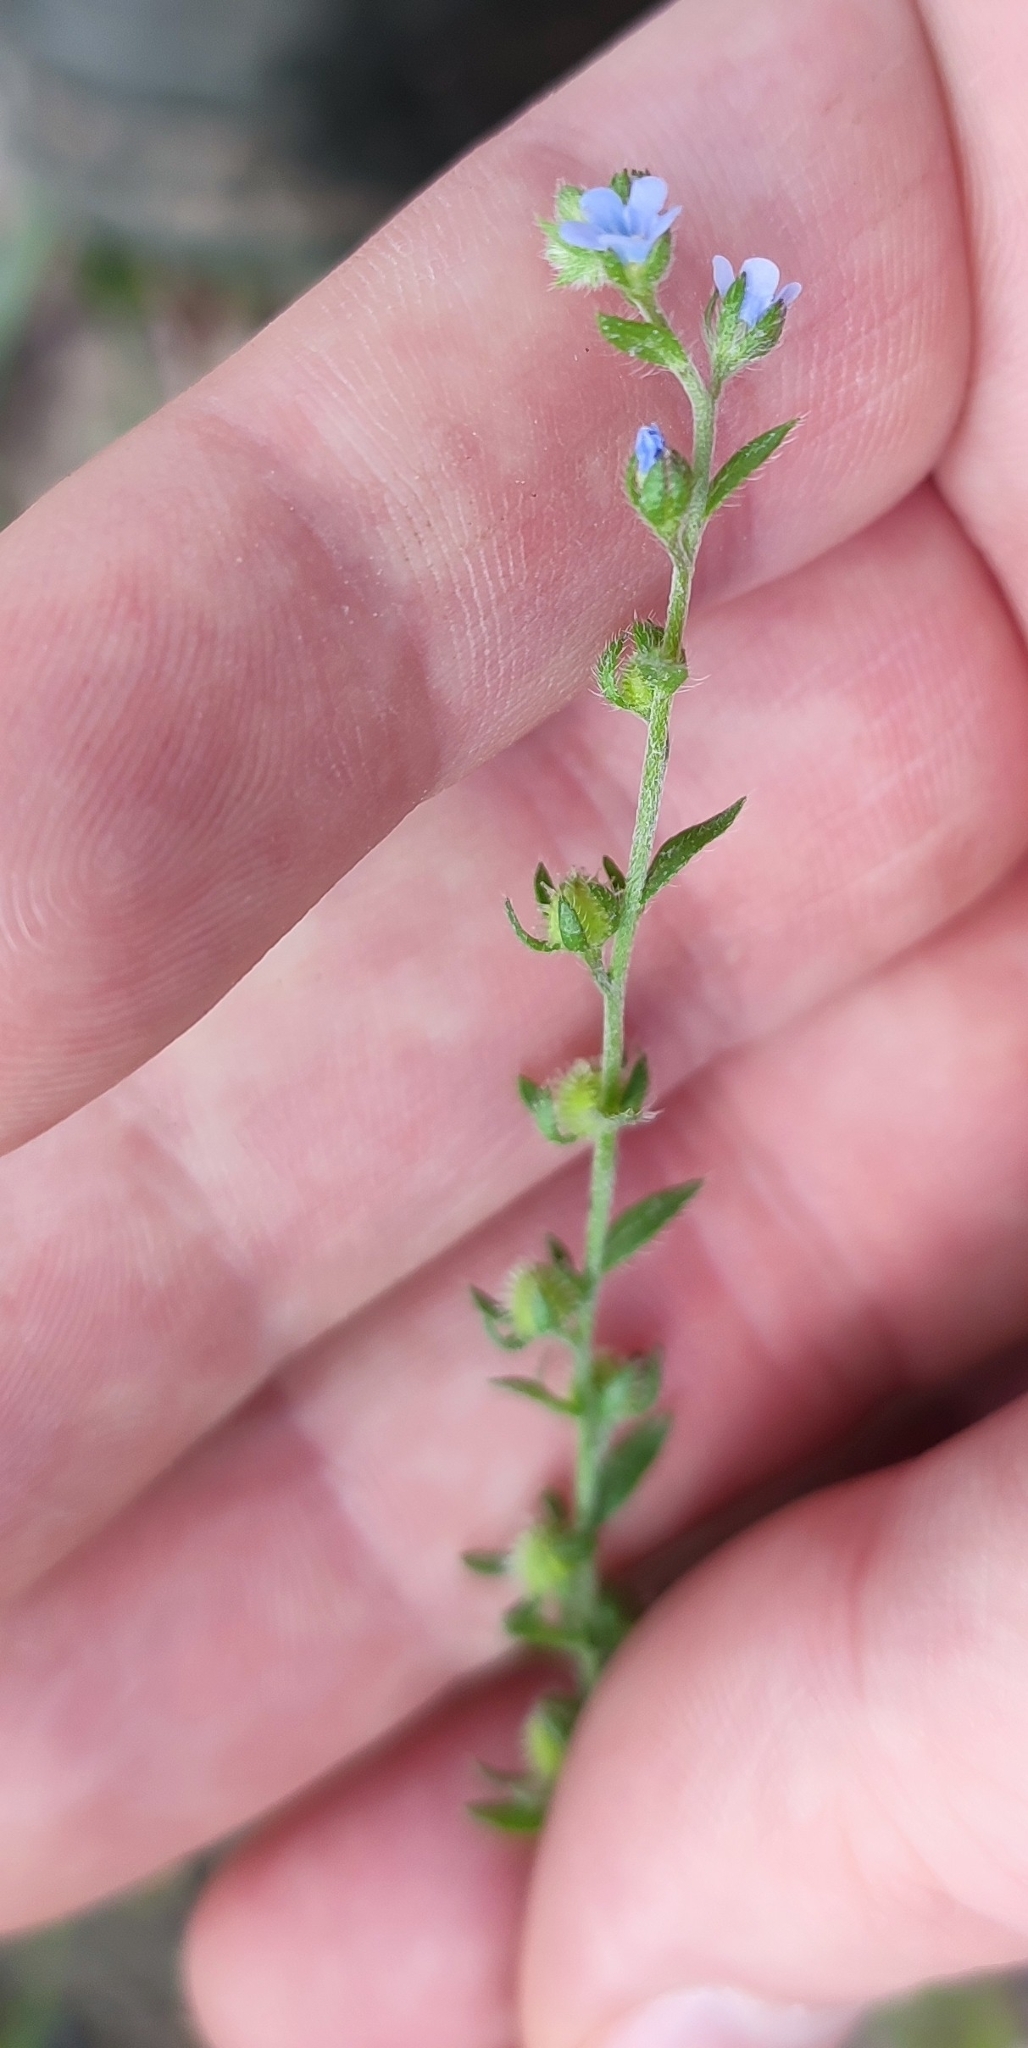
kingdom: Plantae
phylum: Tracheophyta
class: Magnoliopsida
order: Boraginales
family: Boraginaceae
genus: Lappula
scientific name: Lappula squarrosa
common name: European stickseed
